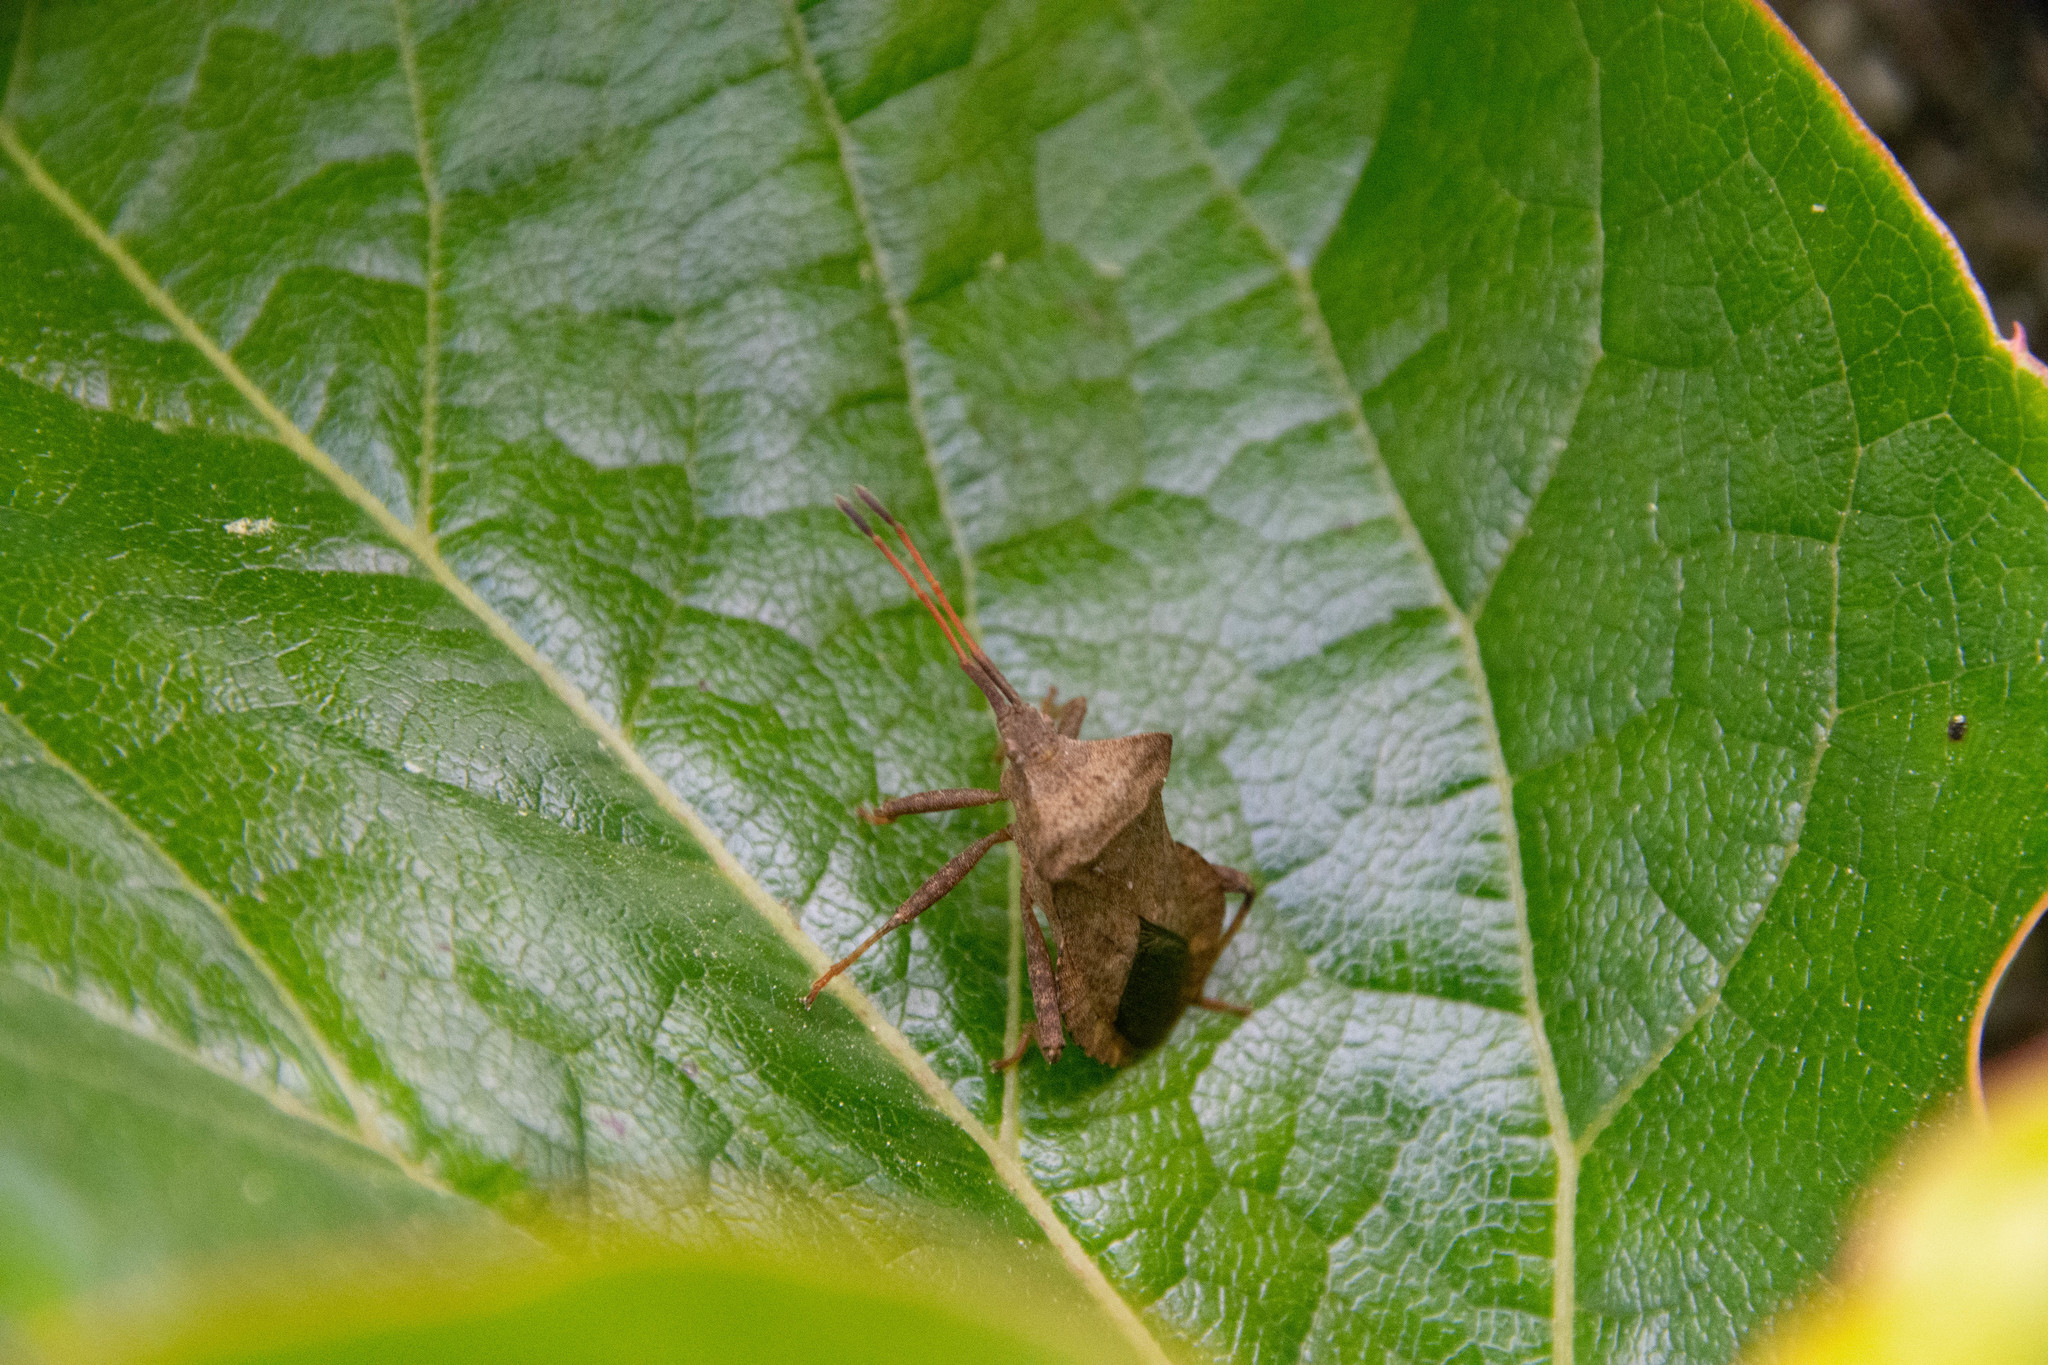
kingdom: Animalia
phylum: Arthropoda
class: Insecta
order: Hemiptera
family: Coreidae
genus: Coreus
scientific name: Coreus marginatus
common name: Dock bug
